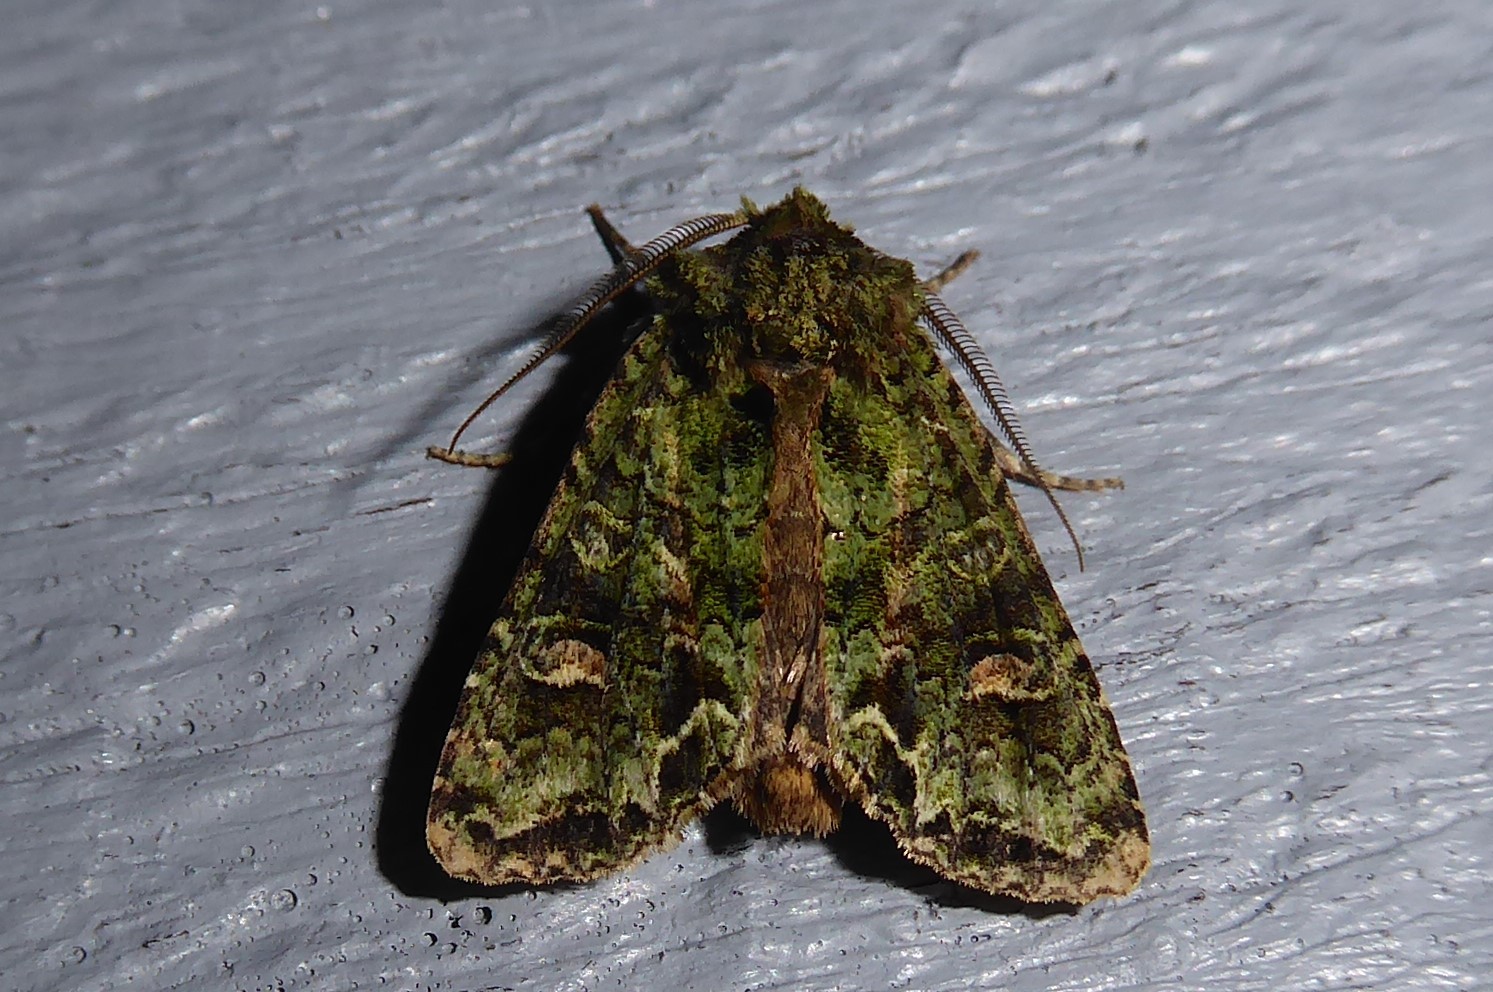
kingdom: Animalia
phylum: Arthropoda
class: Insecta
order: Lepidoptera
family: Noctuidae
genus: Ichneutica
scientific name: Ichneutica
